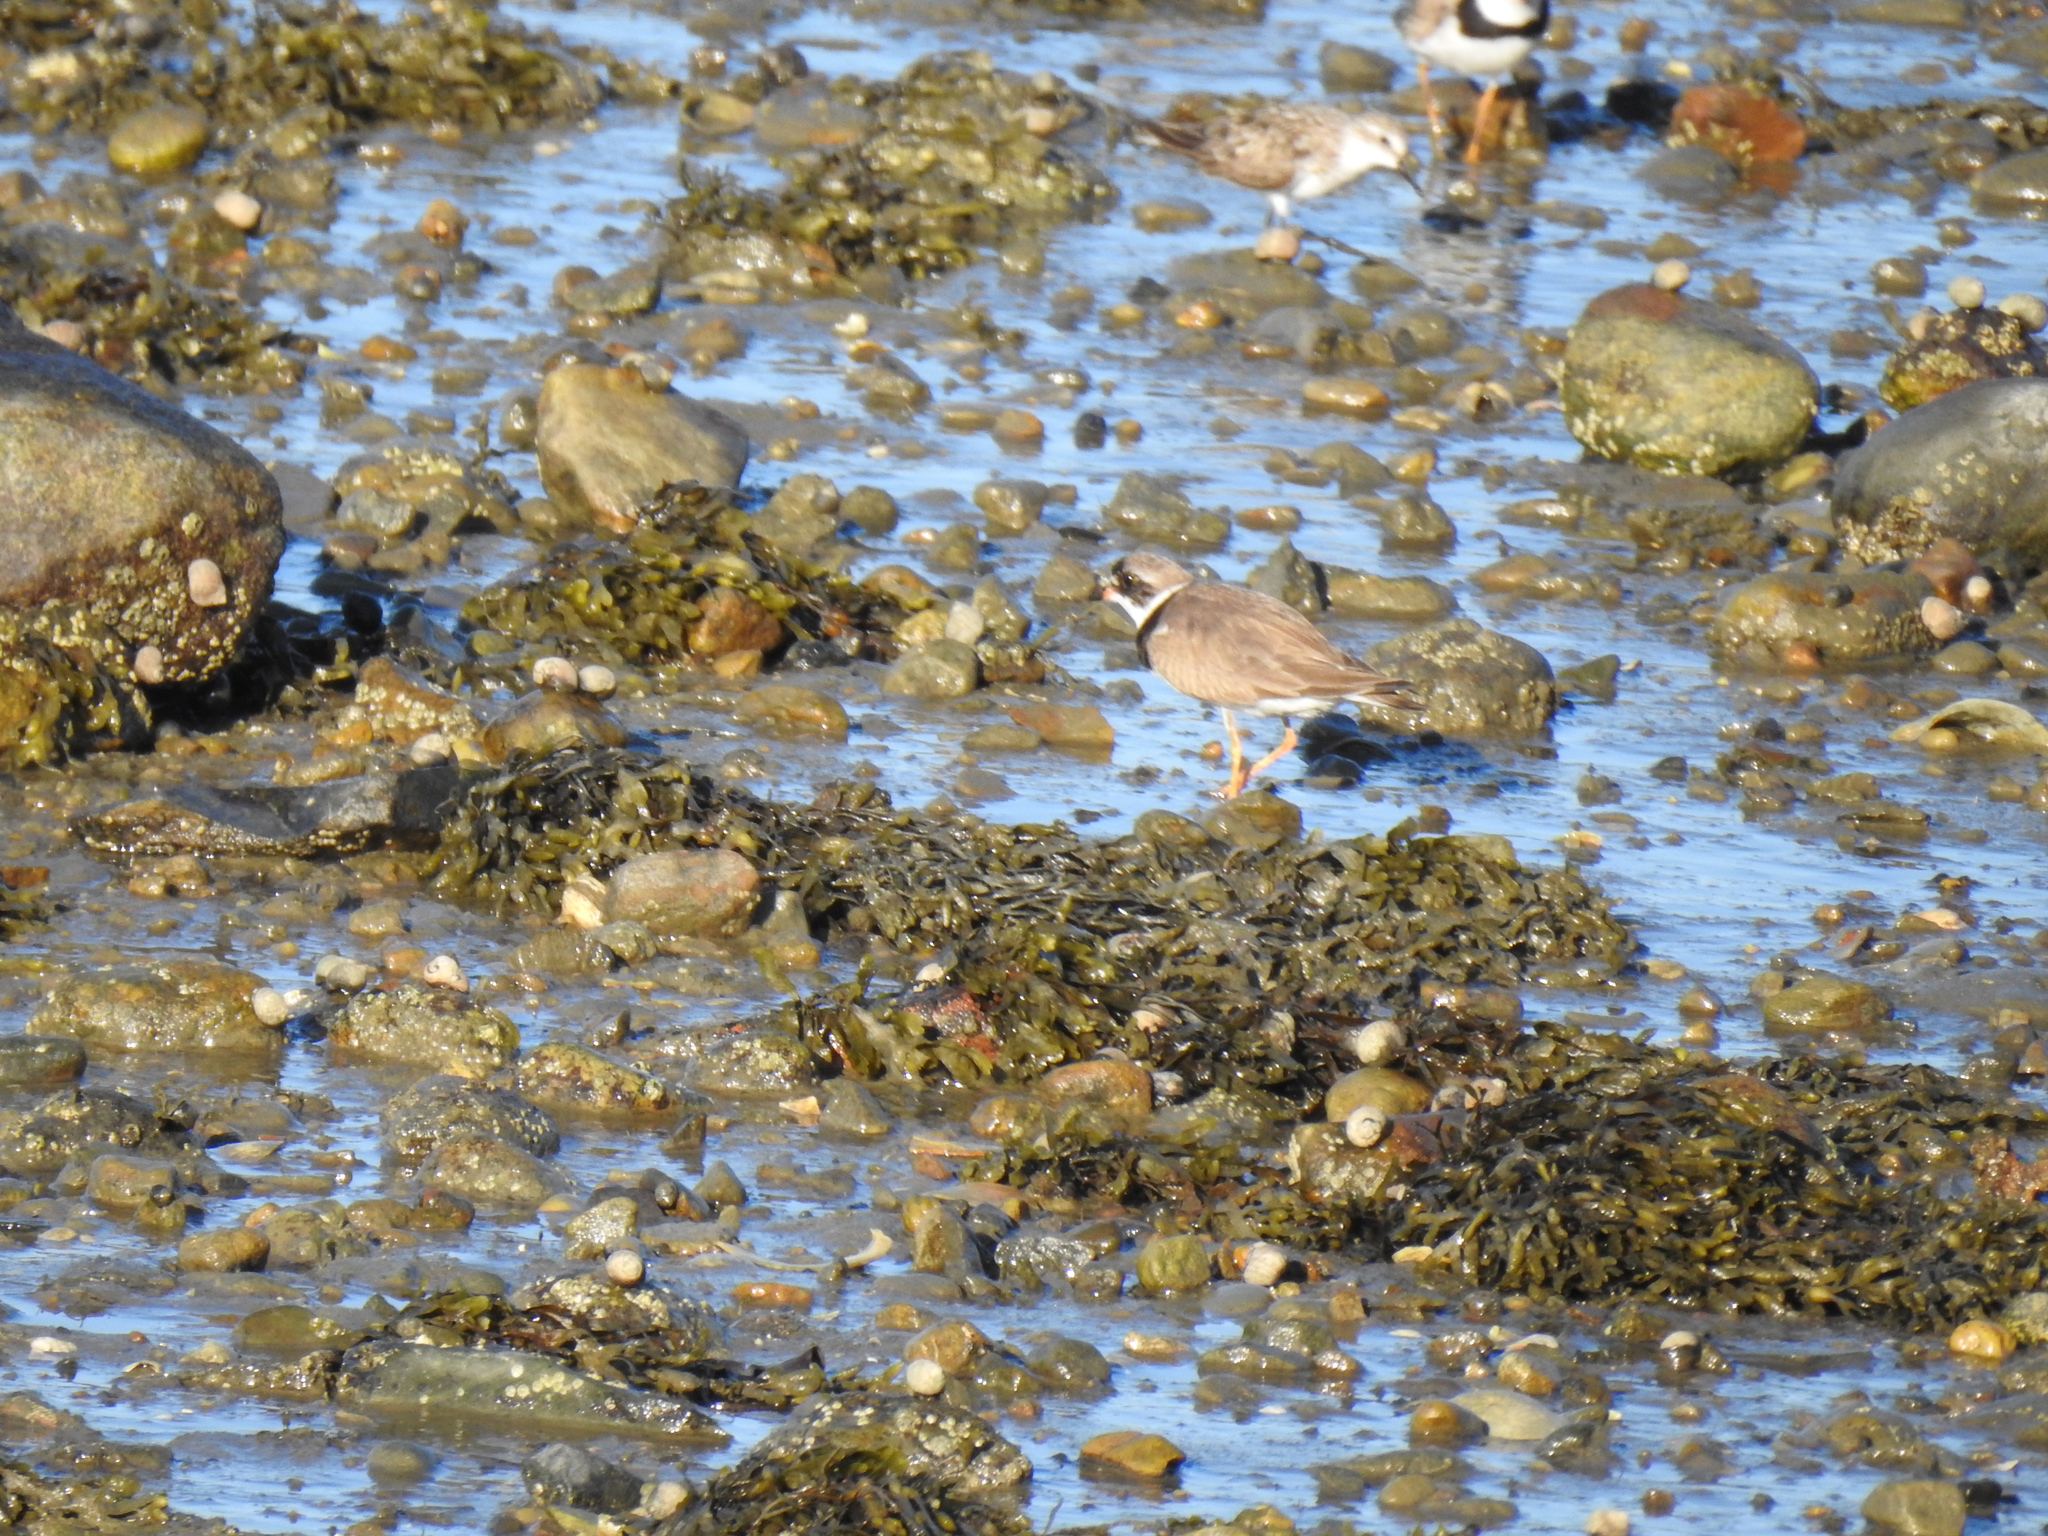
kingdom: Animalia
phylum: Chordata
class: Aves
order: Charadriiformes
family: Charadriidae
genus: Charadrius
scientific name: Charadrius semipalmatus
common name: Semipalmated plover
